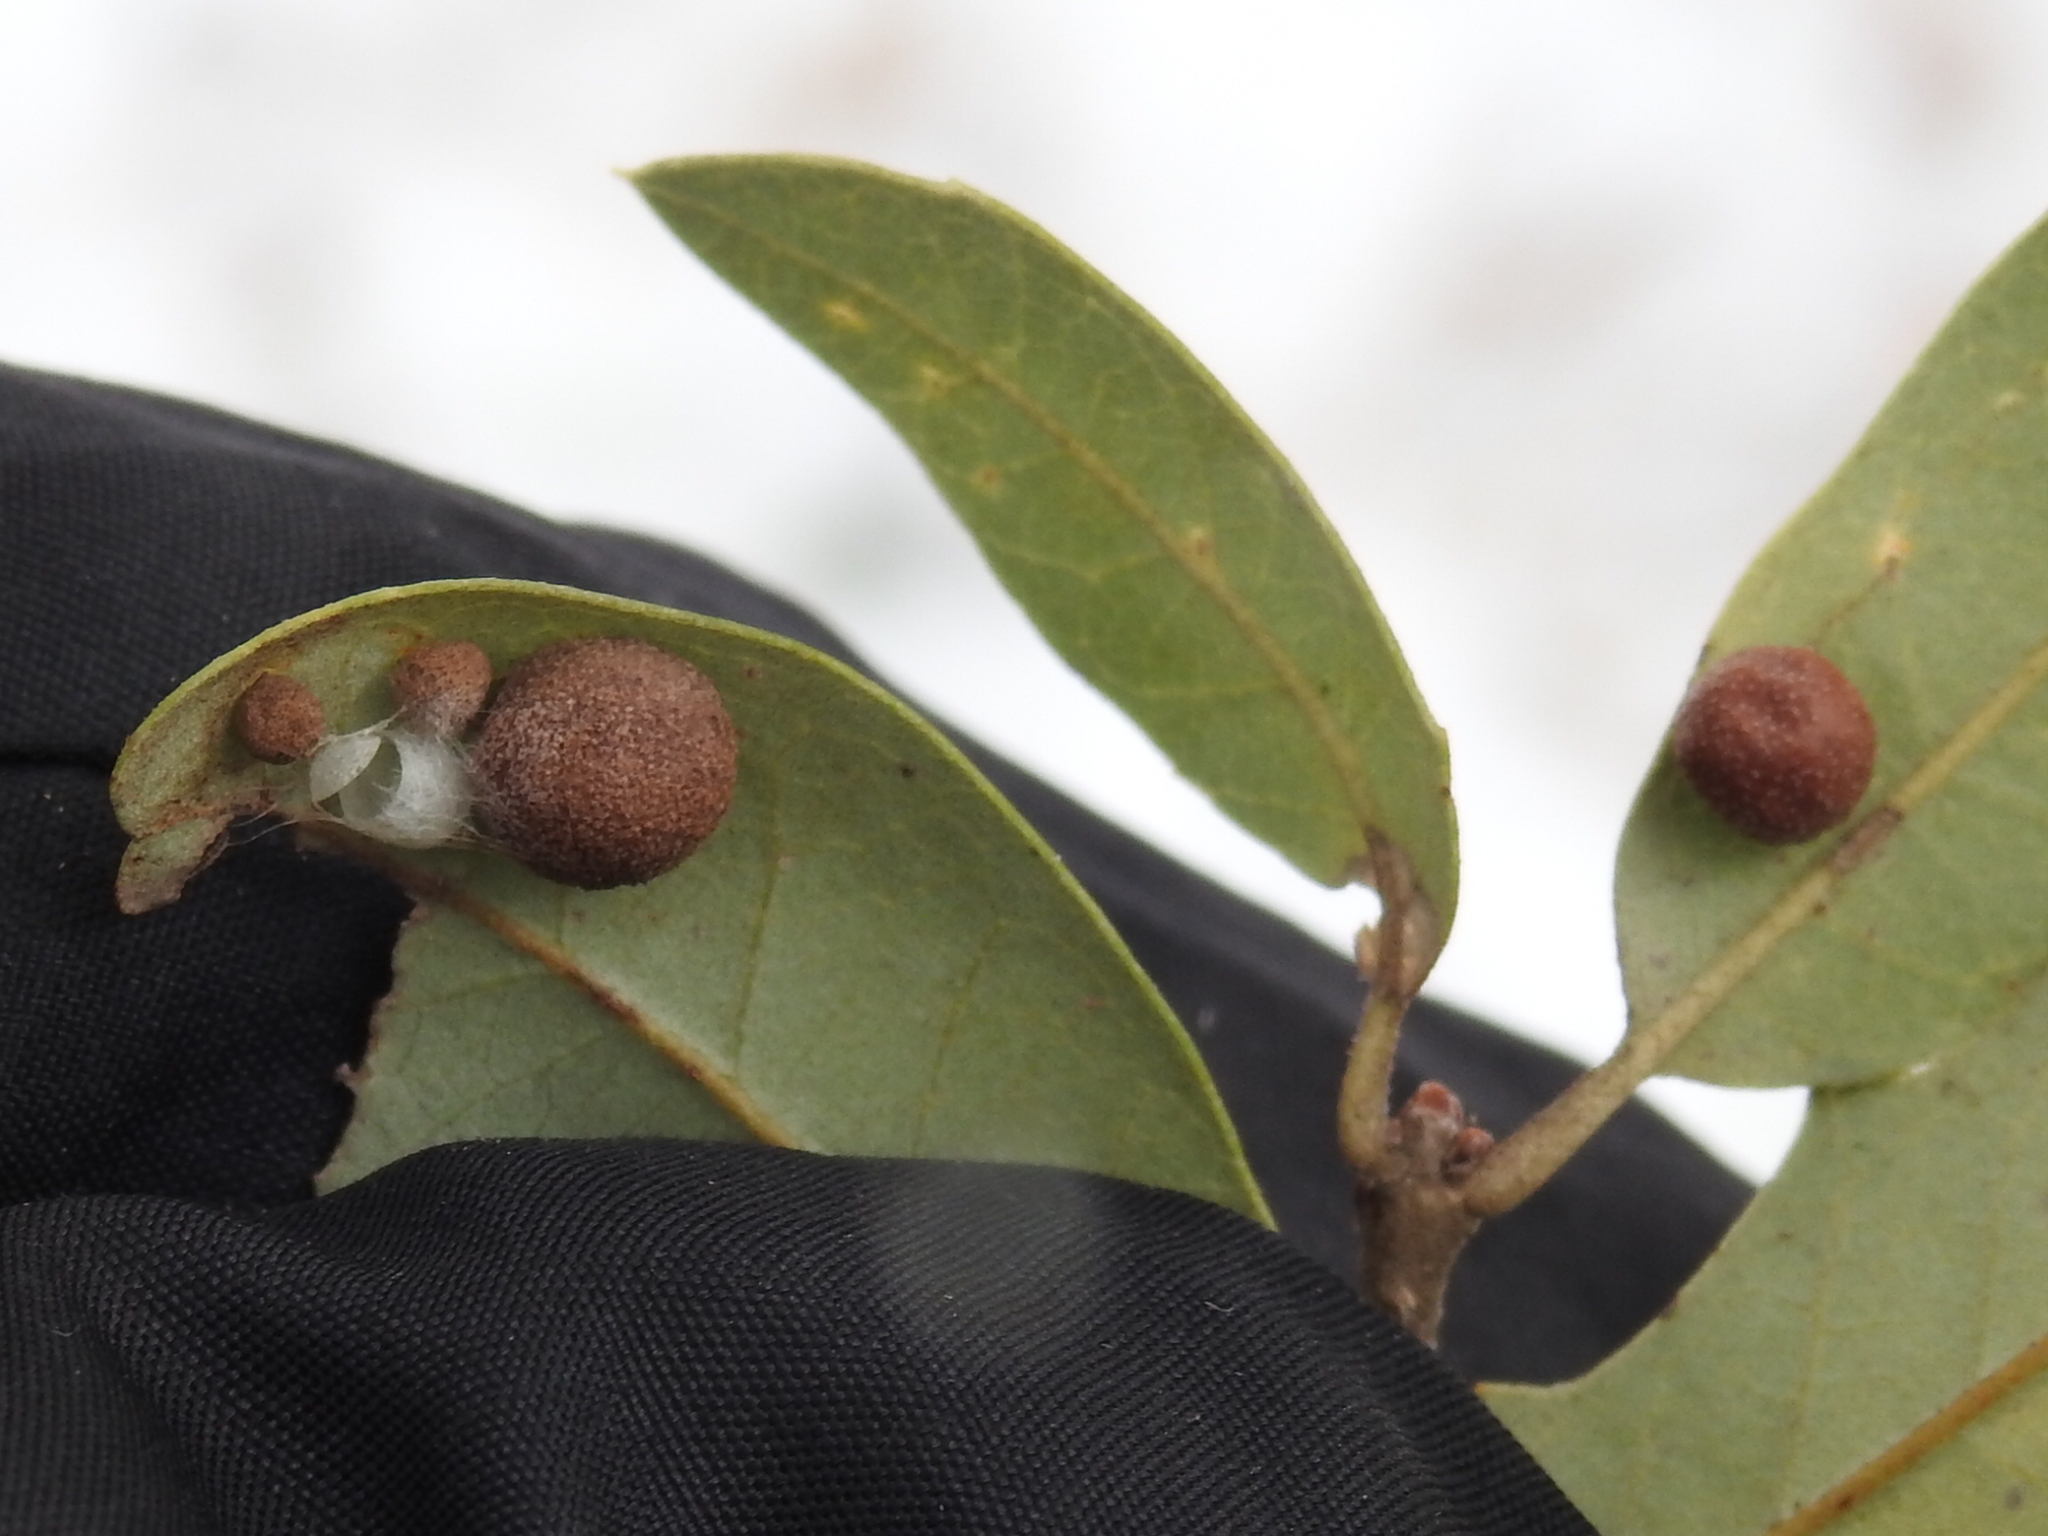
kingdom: Animalia
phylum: Arthropoda
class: Insecta
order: Hymenoptera
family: Cynipidae
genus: Belonocnema
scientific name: Belonocnema kinseyi
